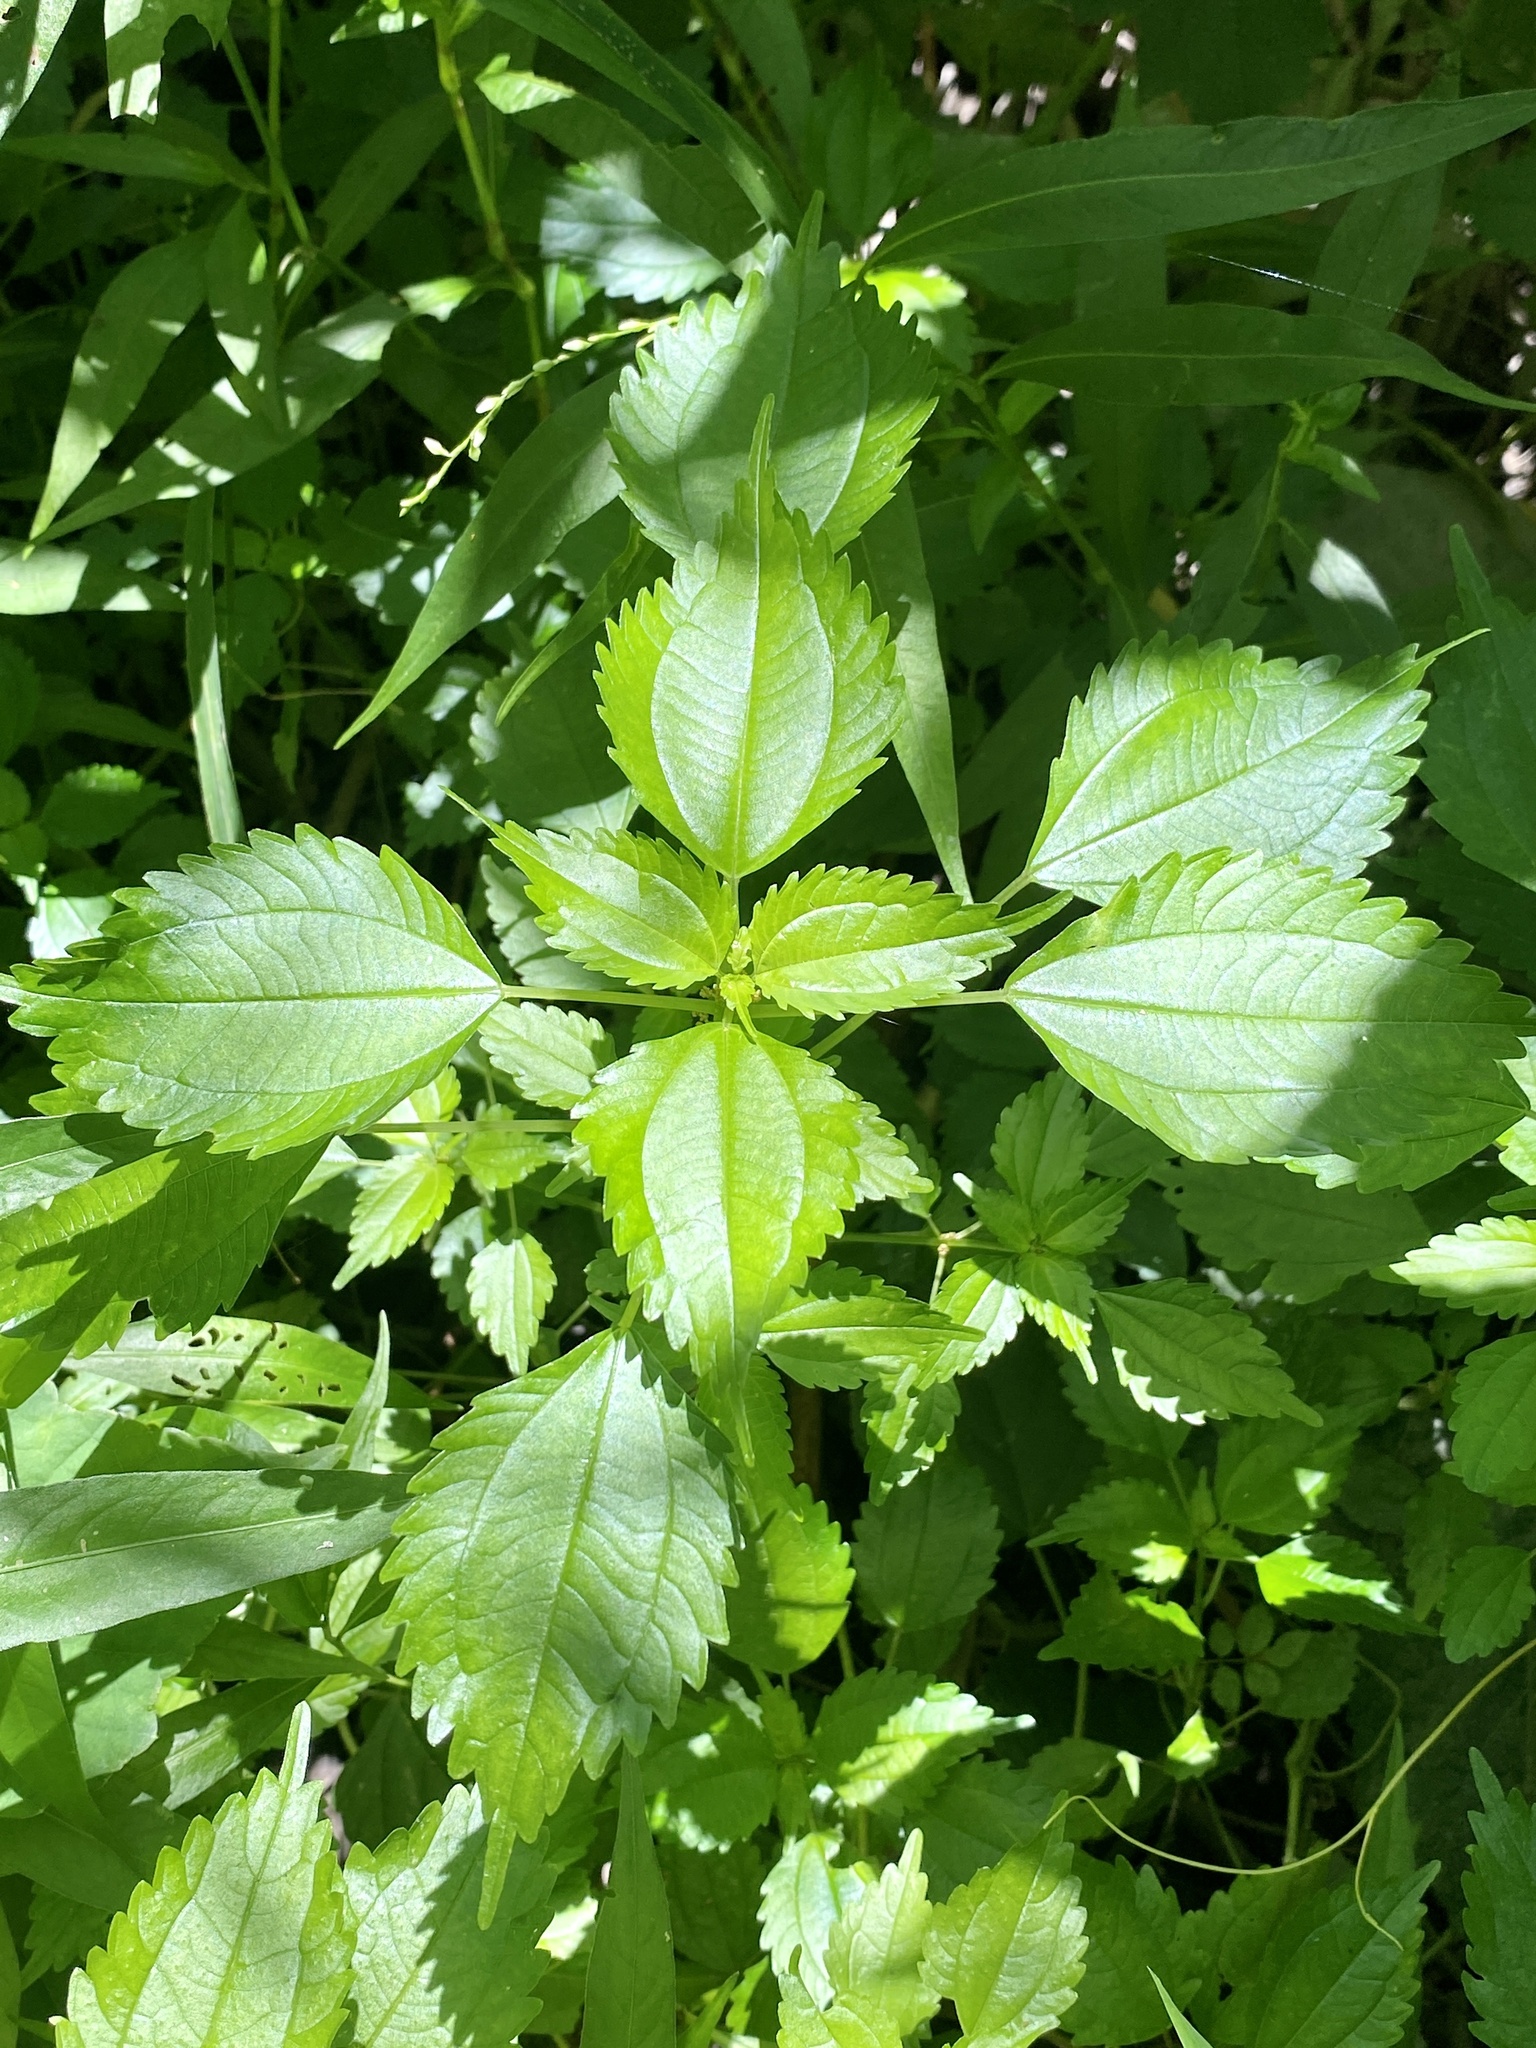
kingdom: Plantae
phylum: Tracheophyta
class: Magnoliopsida
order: Rosales
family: Urticaceae
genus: Pilea
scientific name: Pilea pumila
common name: Clearweed
